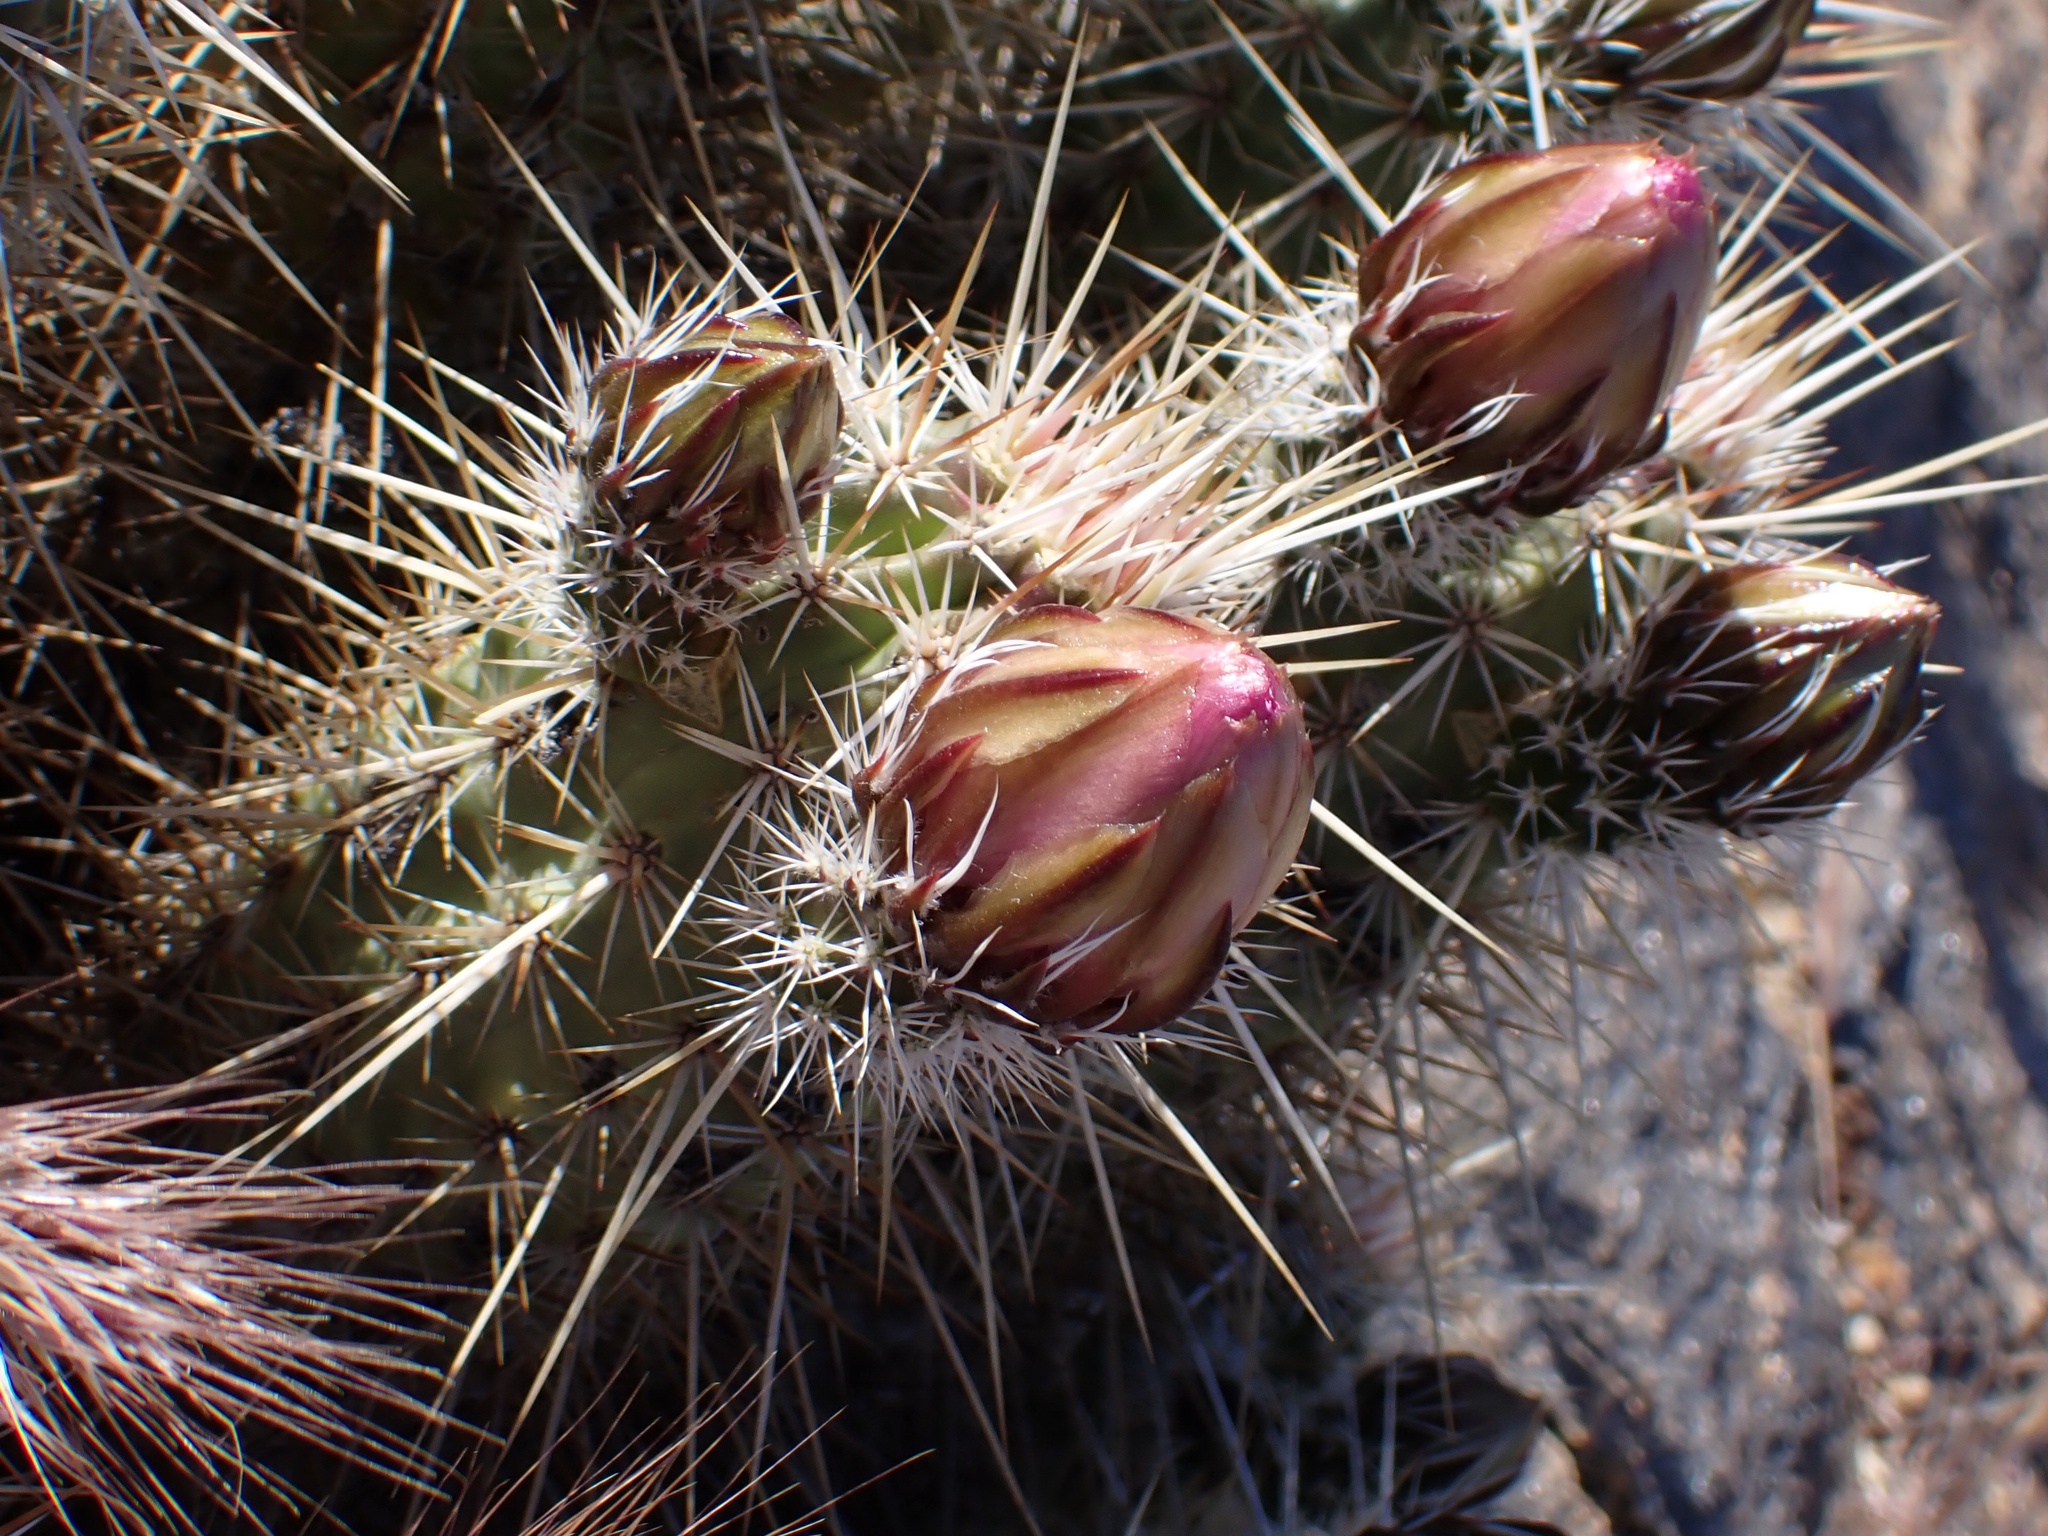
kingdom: Plantae
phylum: Tracheophyta
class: Magnoliopsida
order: Caryophyllales
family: Cactaceae
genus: Echinocereus
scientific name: Echinocereus engelmannii
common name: Engelmann's hedgehog cactus
